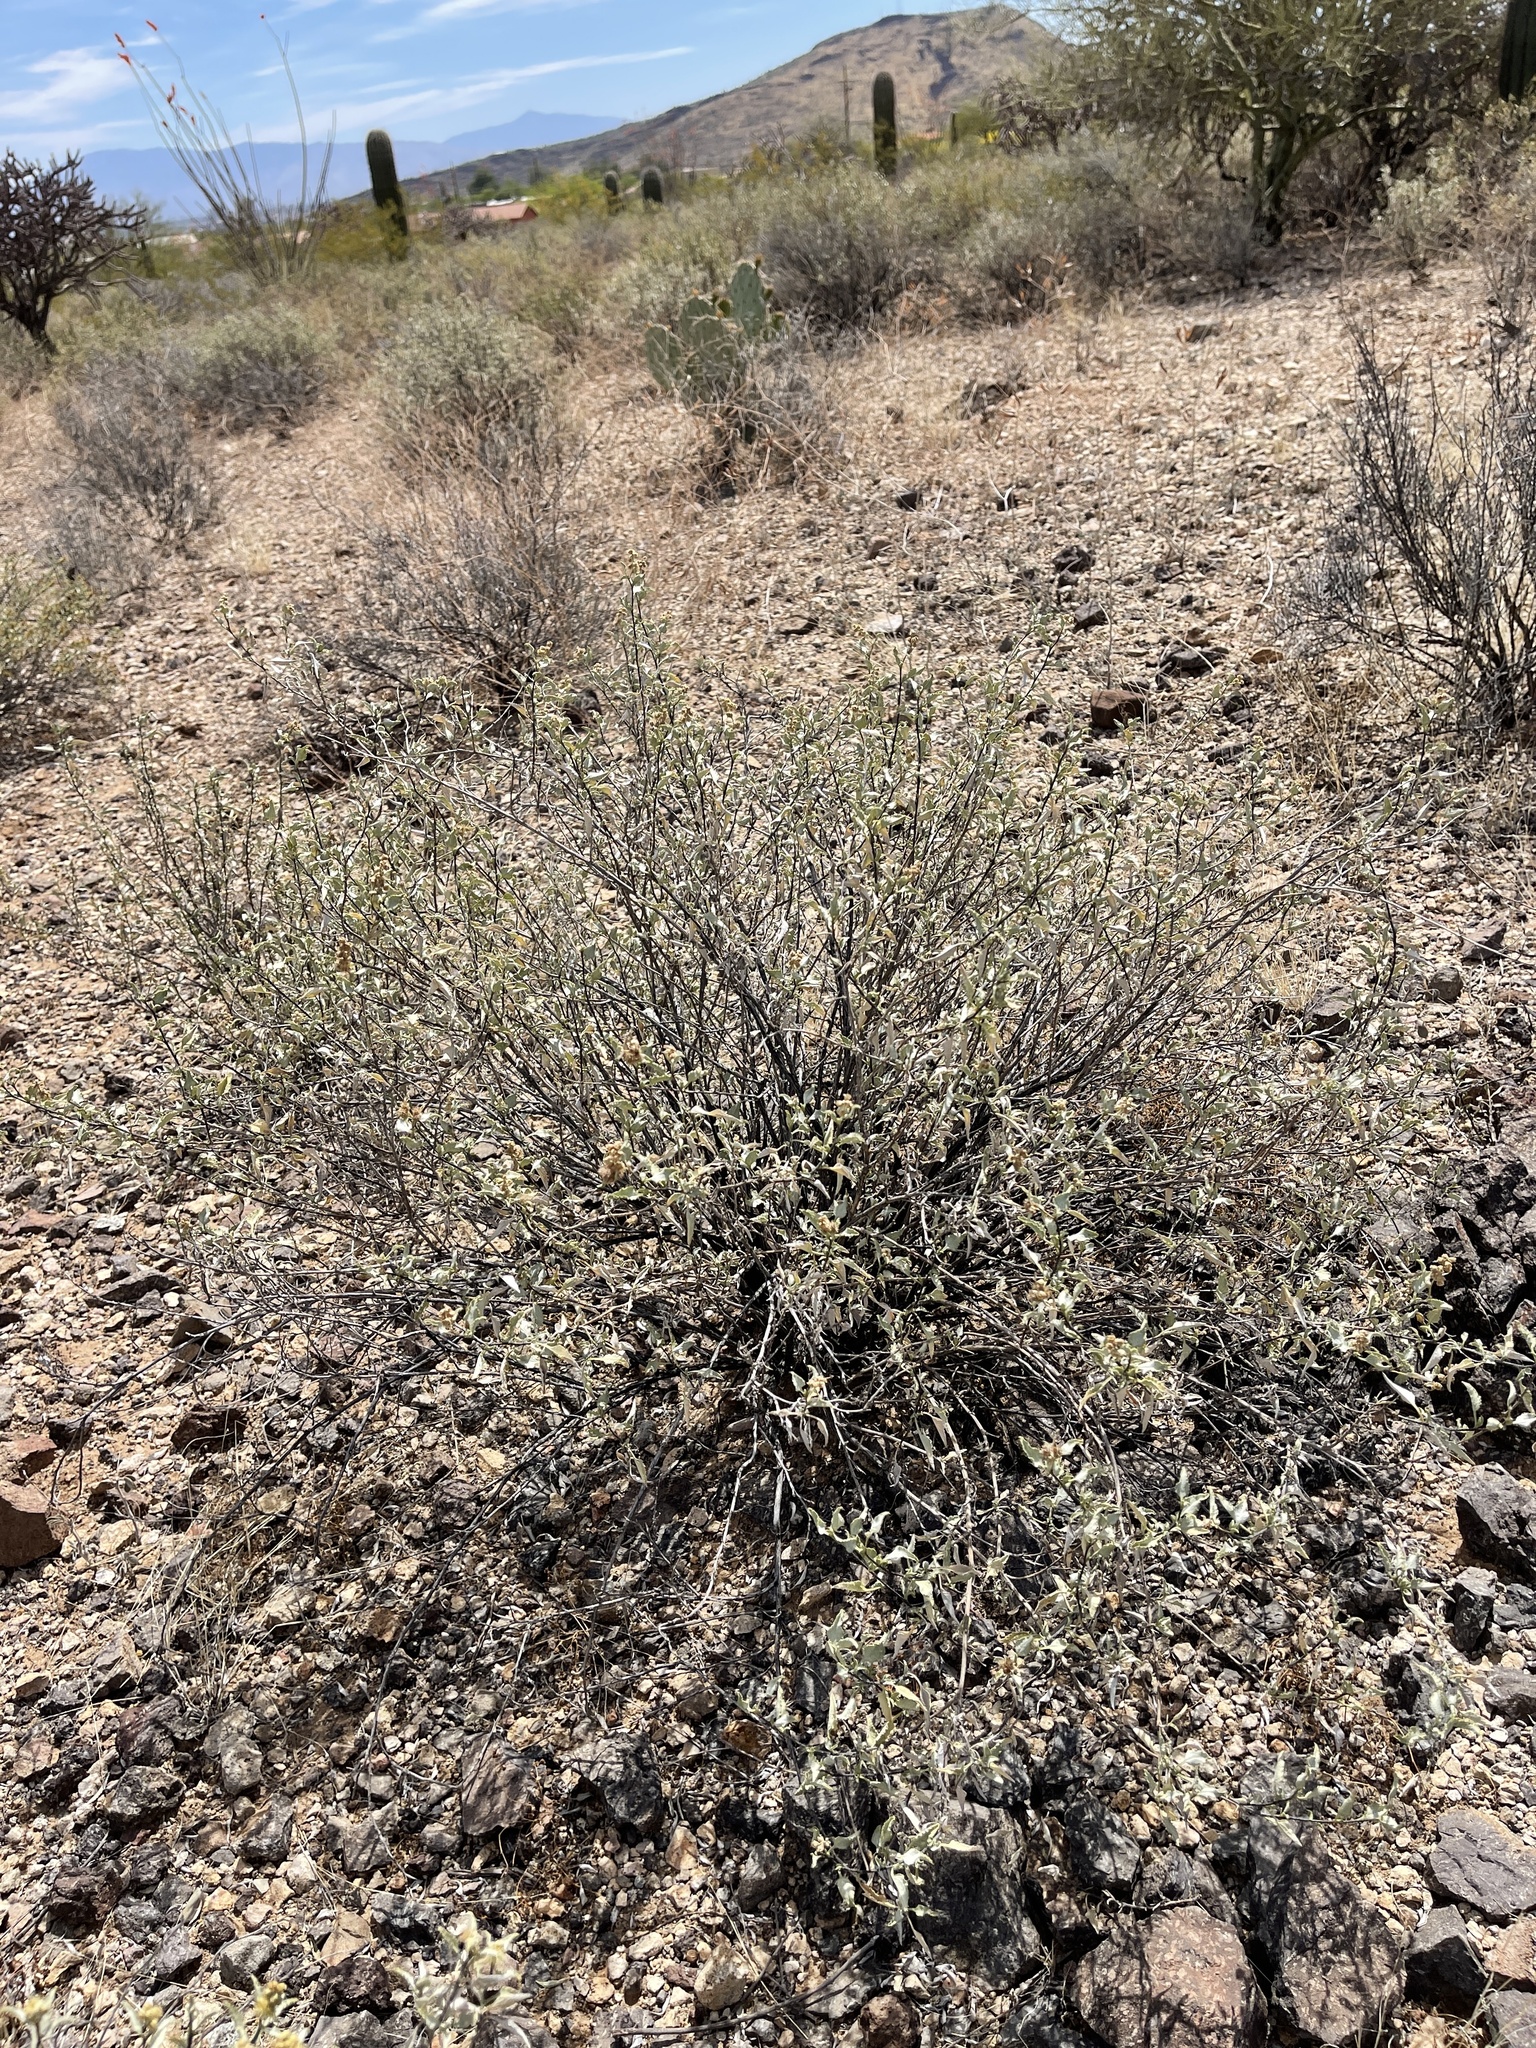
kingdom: Plantae
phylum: Tracheophyta
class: Magnoliopsida
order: Asterales
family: Asteraceae
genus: Ambrosia
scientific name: Ambrosia deltoidea
